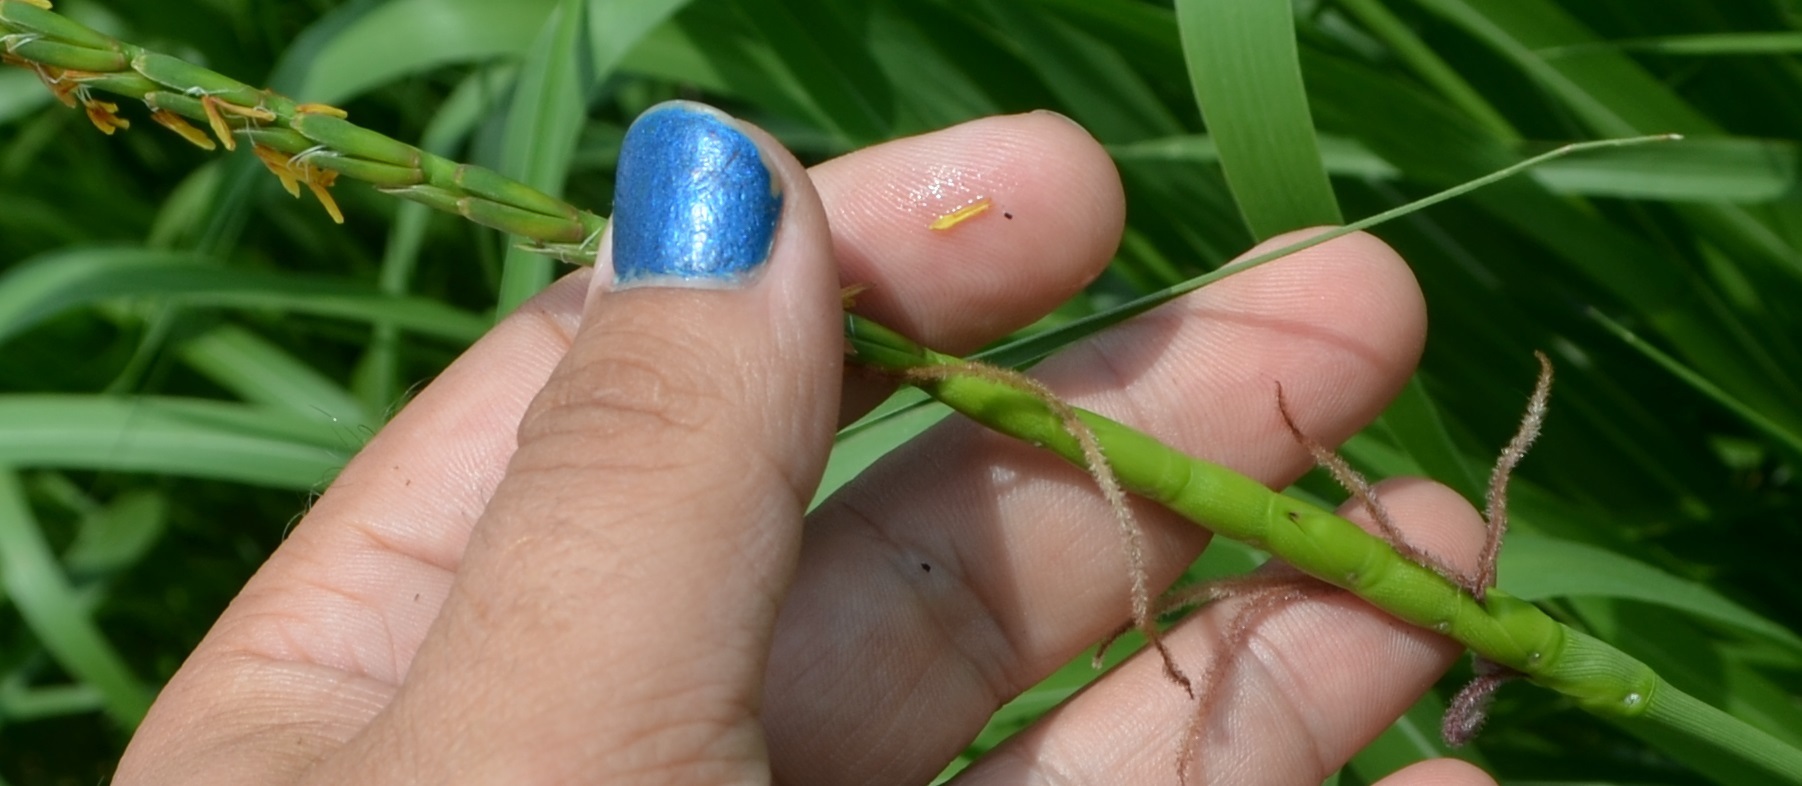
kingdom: Plantae
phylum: Tracheophyta
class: Liliopsida
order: Poales
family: Poaceae
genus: Tripsacum
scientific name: Tripsacum dactyloides
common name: Buffalo-grass
